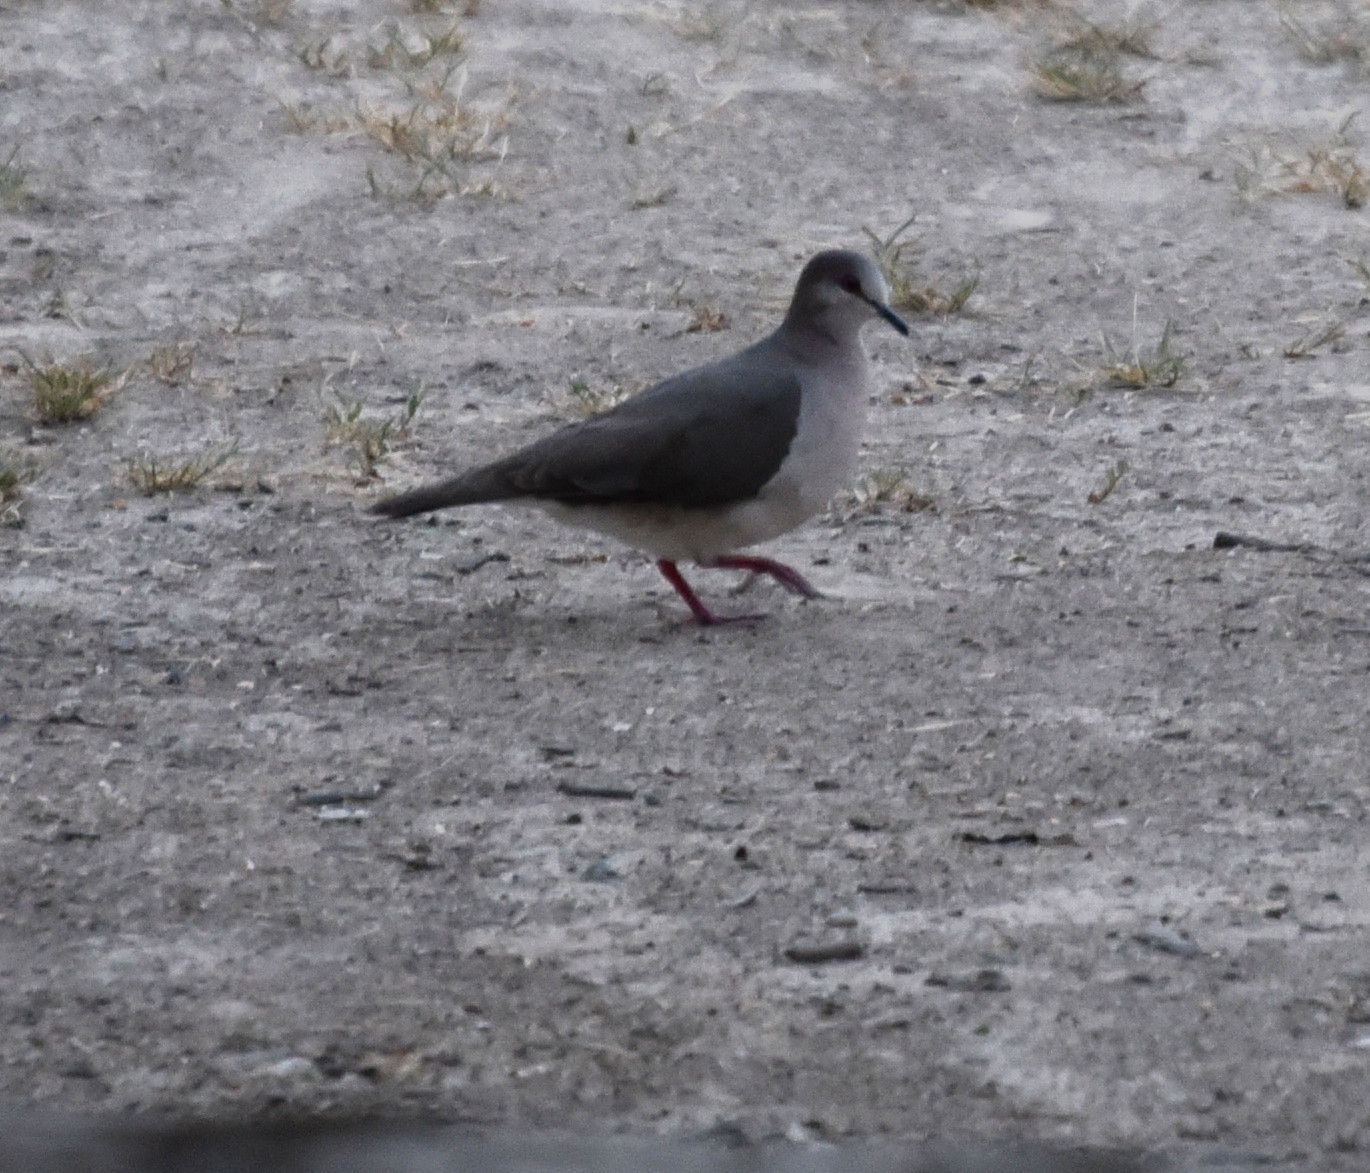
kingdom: Animalia
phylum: Chordata
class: Aves
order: Columbiformes
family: Columbidae
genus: Leptotila
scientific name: Leptotila verreauxi
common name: White-tipped dove
